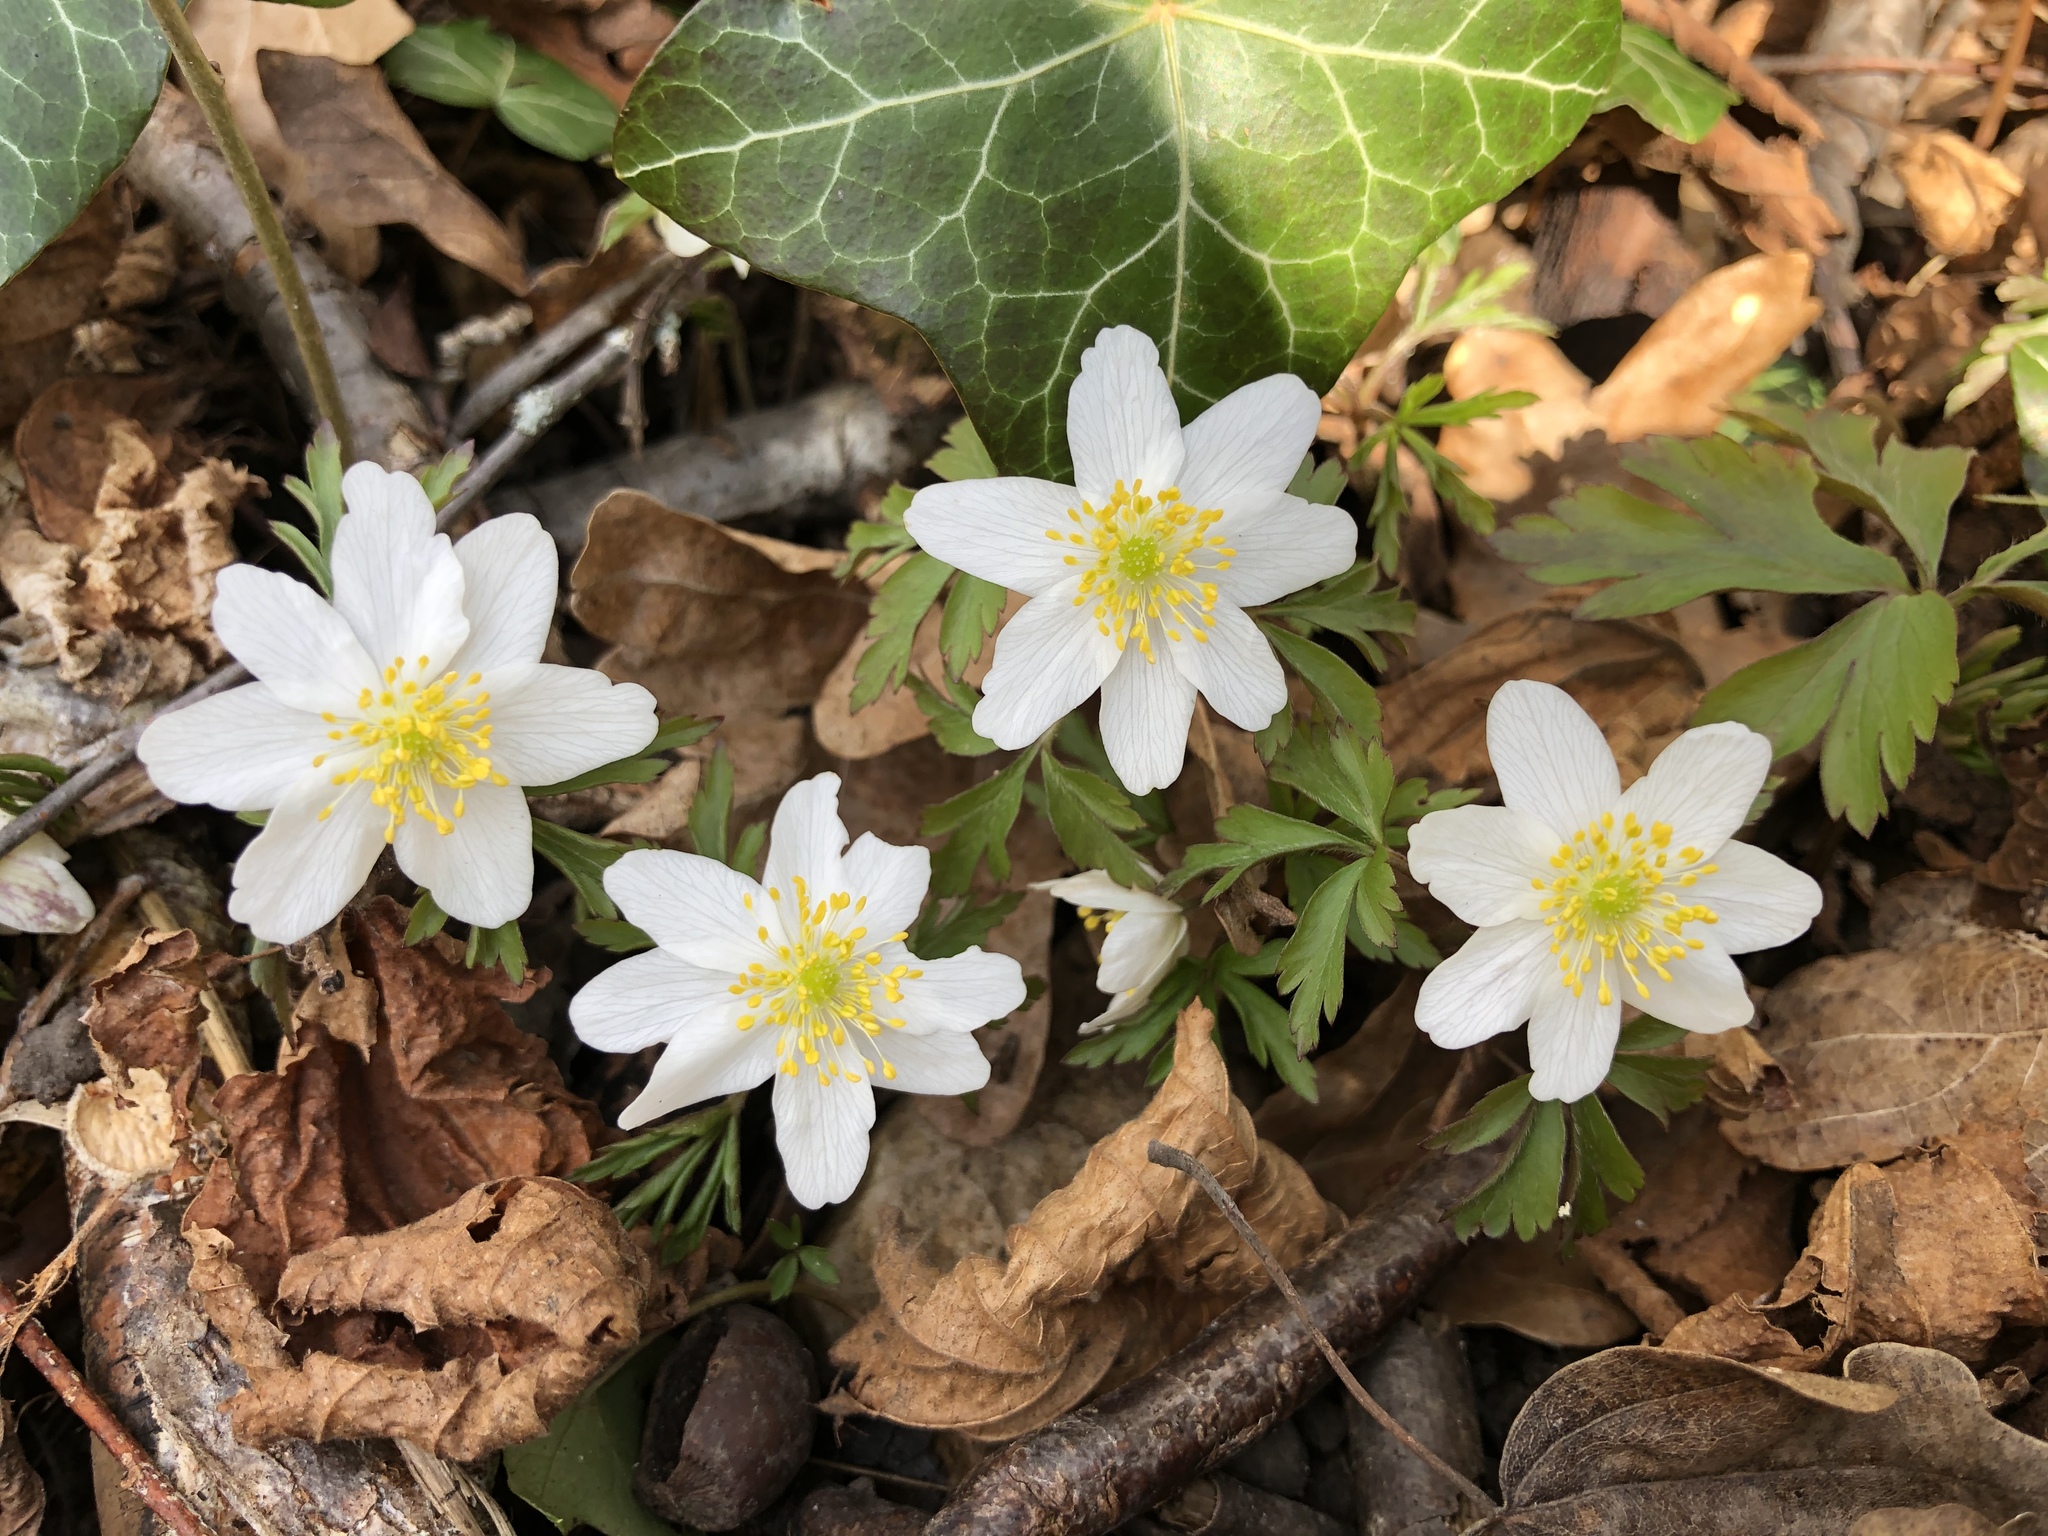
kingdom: Plantae
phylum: Tracheophyta
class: Magnoliopsida
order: Ranunculales
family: Ranunculaceae
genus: Anemone
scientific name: Anemone nemorosa
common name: Wood anemone
